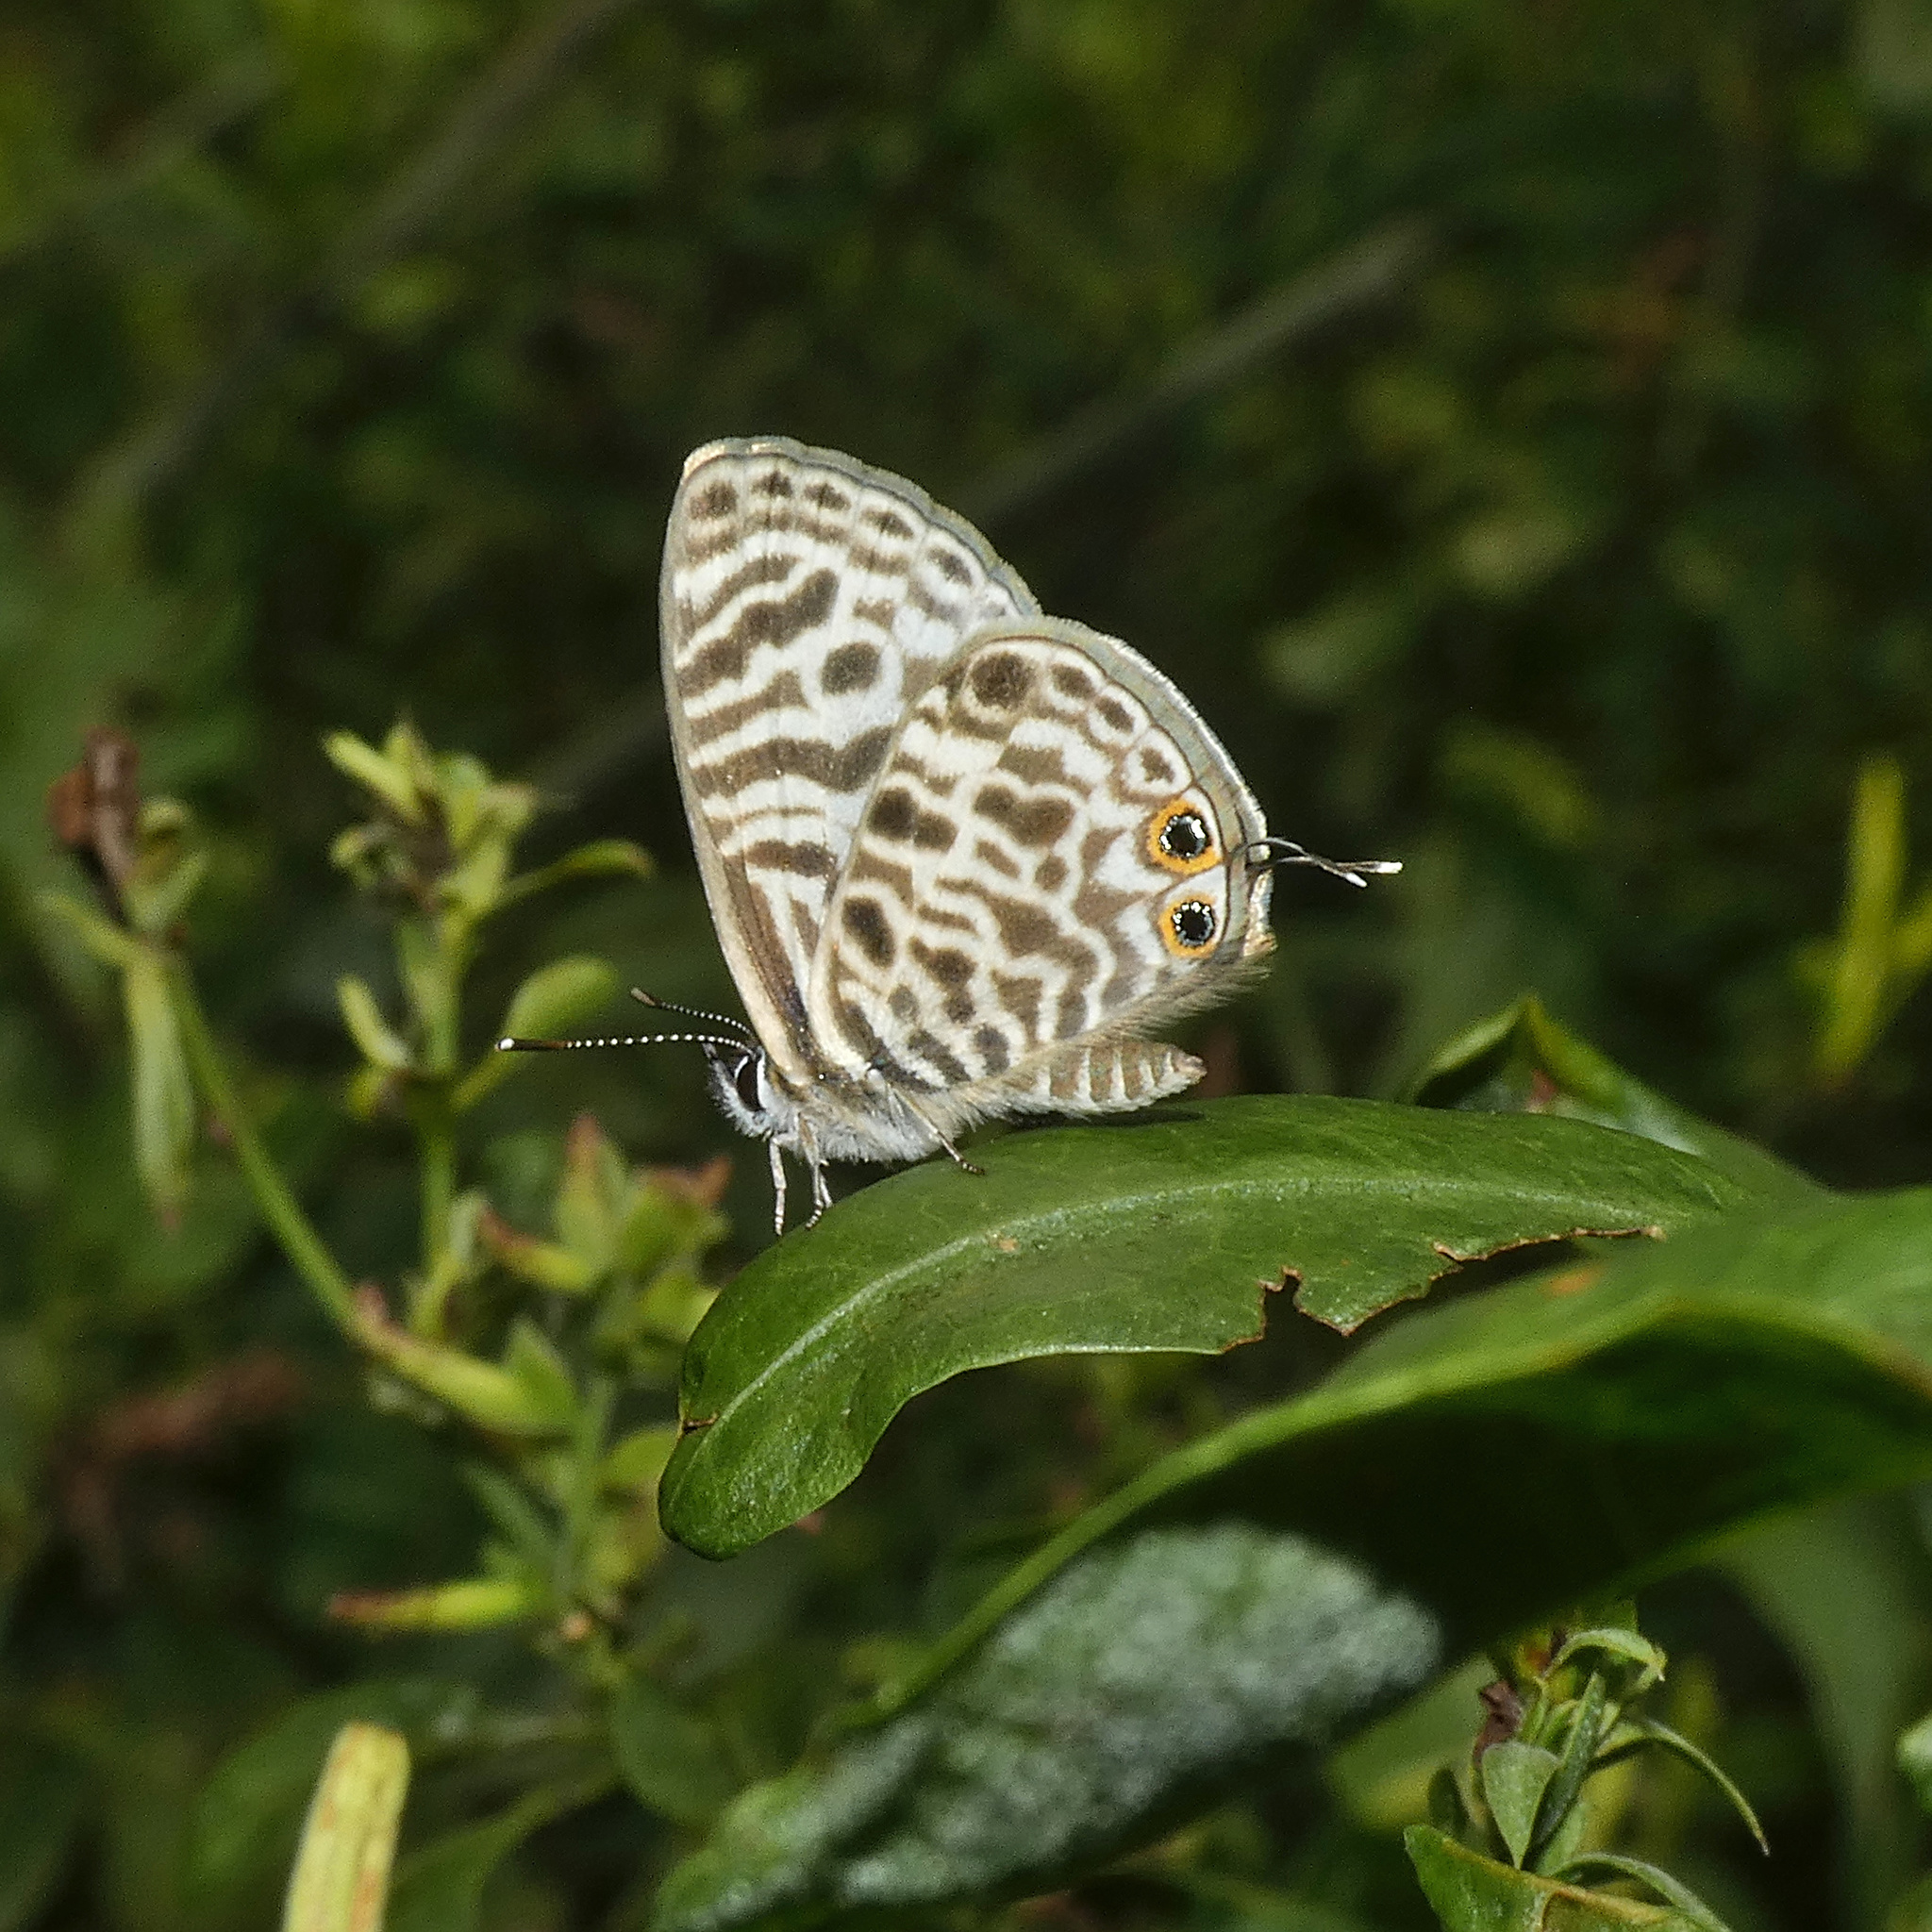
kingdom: Animalia
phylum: Arthropoda
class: Insecta
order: Lepidoptera
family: Lycaenidae
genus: Leptotes
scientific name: Leptotes
